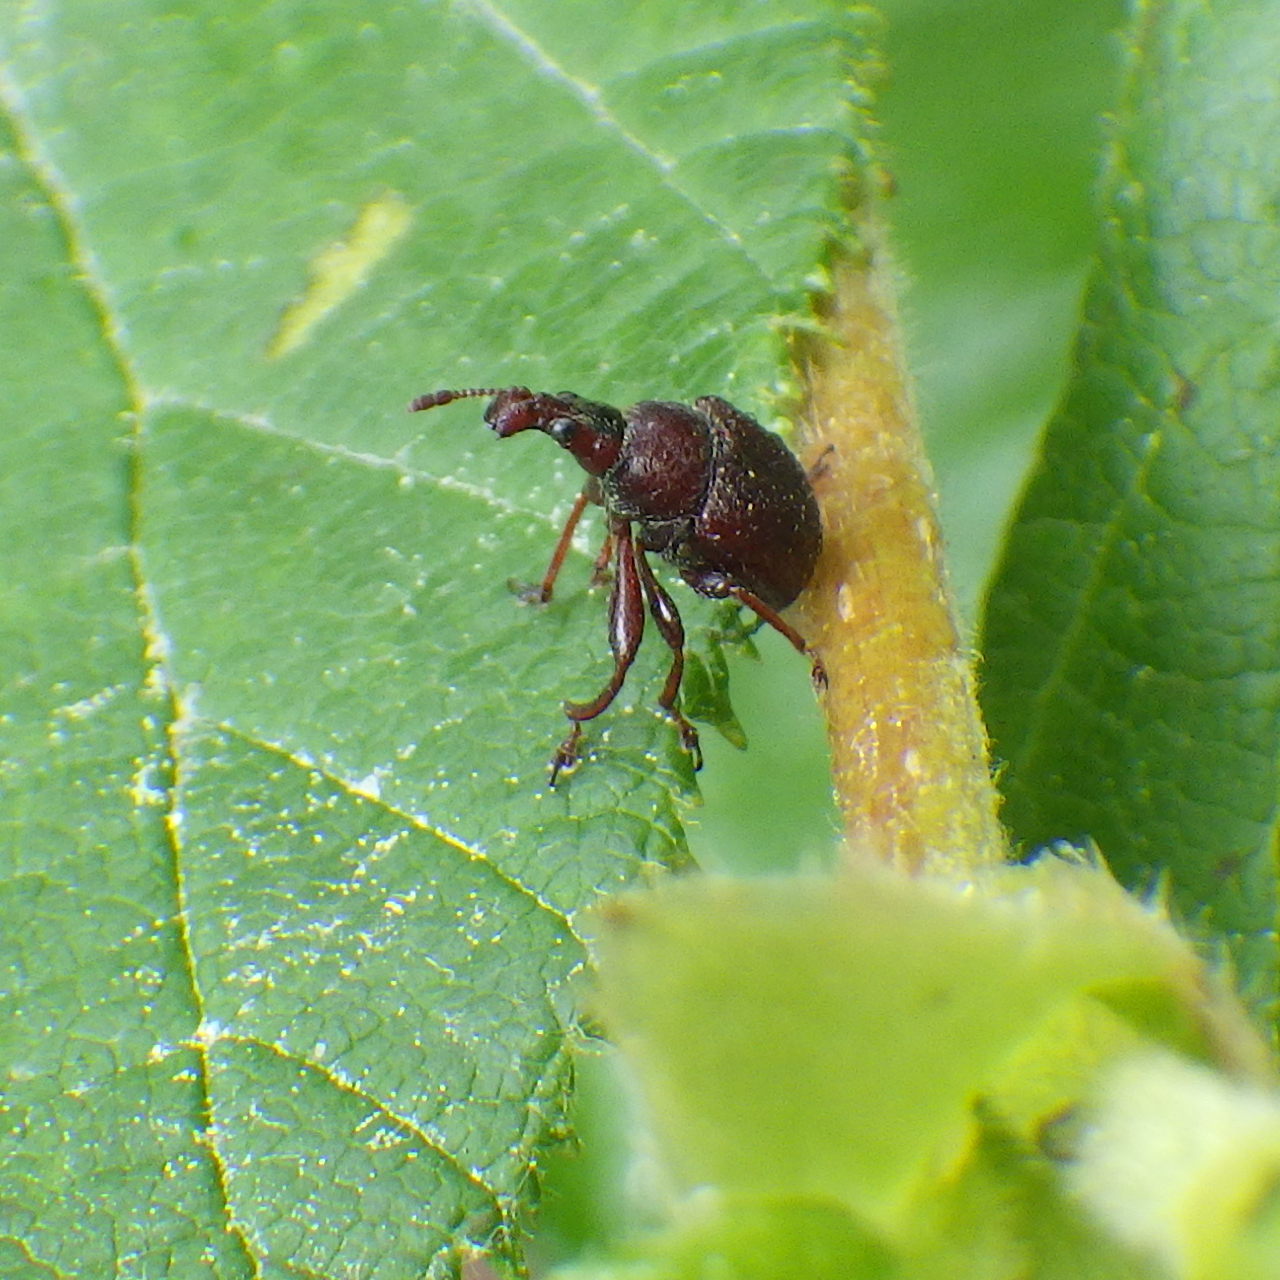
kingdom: Animalia
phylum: Arthropoda
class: Insecta
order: Coleoptera
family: Attelabidae
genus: Himatolabus
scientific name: Himatolabus pubescens
